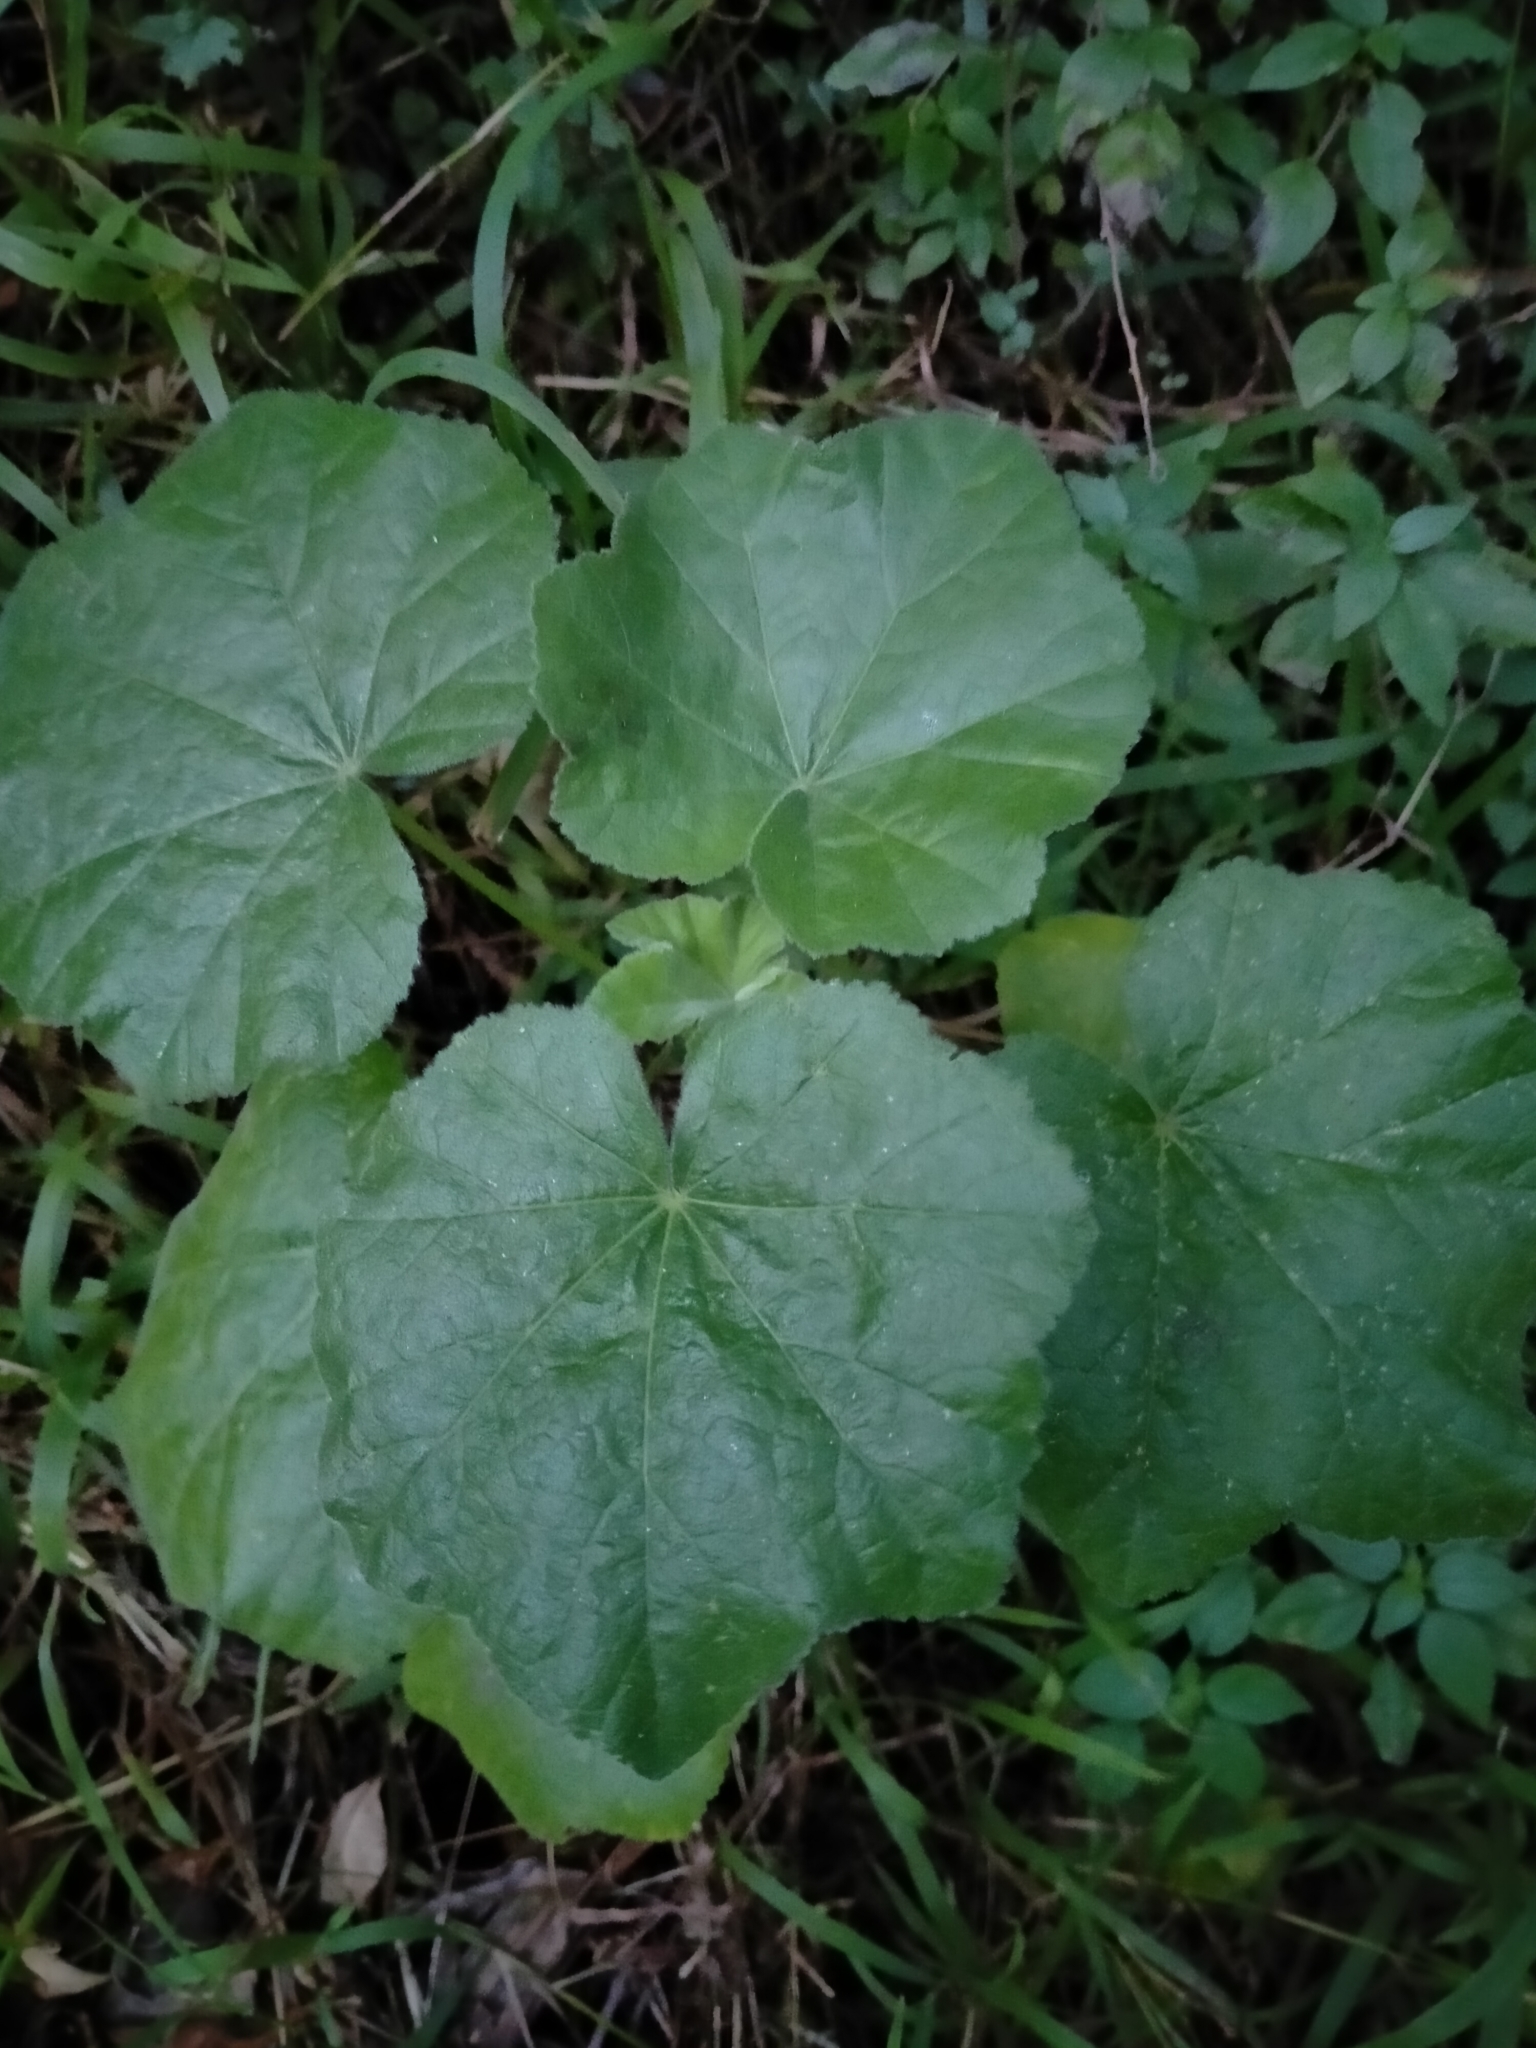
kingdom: Plantae
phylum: Tracheophyta
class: Magnoliopsida
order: Malvales
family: Malvaceae
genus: Malva
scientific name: Malva arborea
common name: Tree mallow
